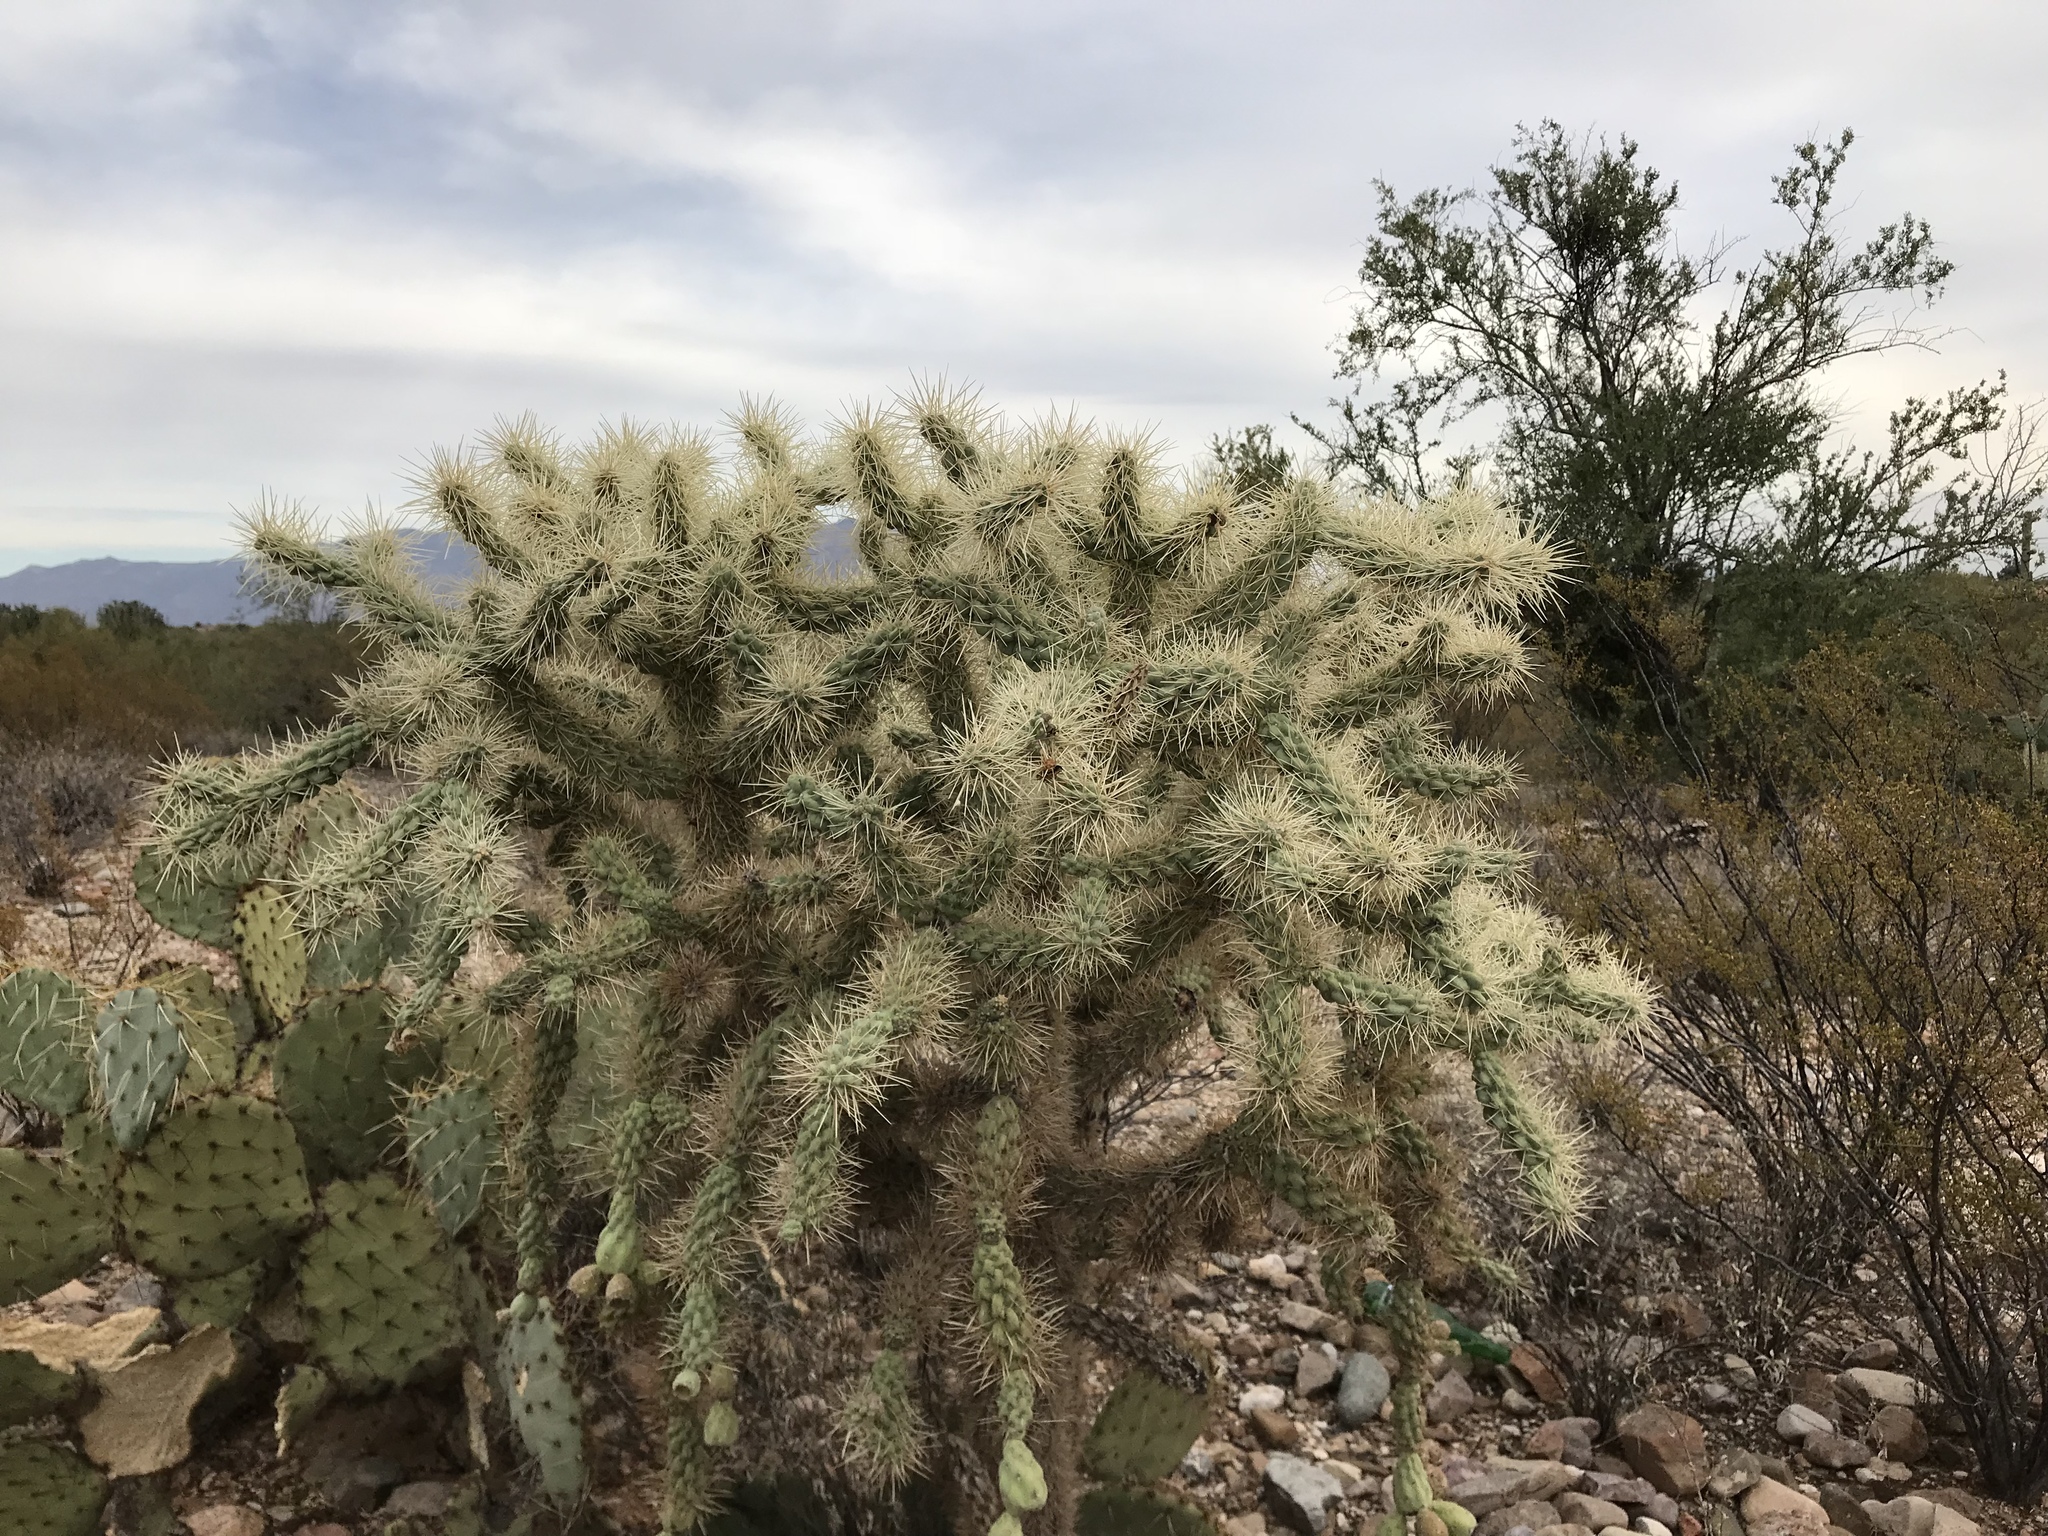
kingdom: Plantae
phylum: Tracheophyta
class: Magnoliopsida
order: Caryophyllales
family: Cactaceae
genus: Cylindropuntia
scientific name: Cylindropuntia fulgida
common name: Jumping cholla
